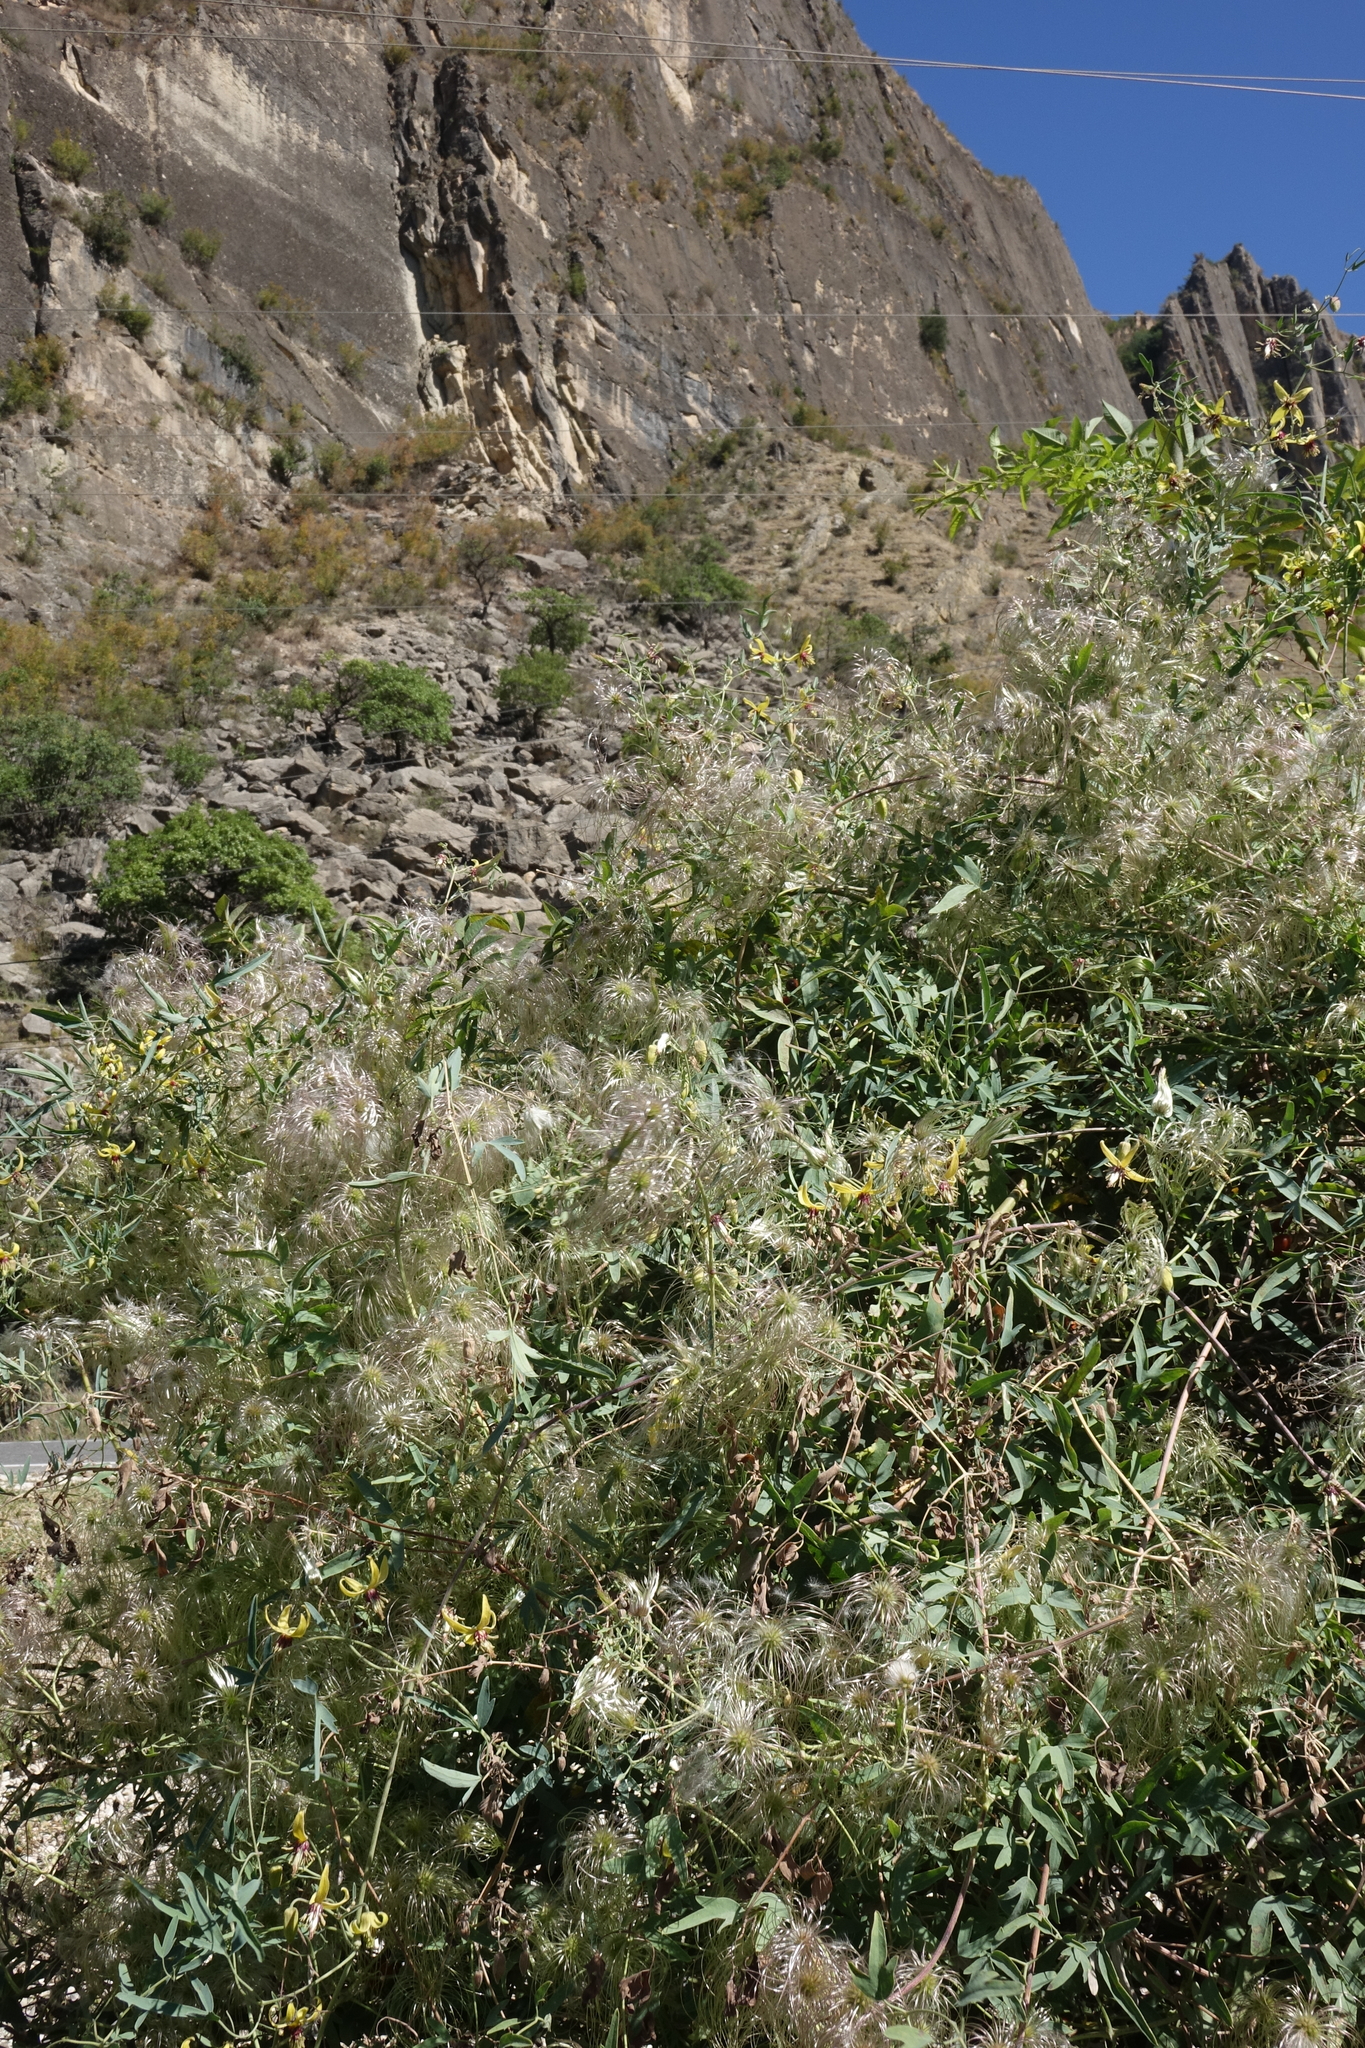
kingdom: Plantae
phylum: Tracheophyta
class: Magnoliopsida
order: Ranunculales
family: Ranunculaceae
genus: Clematis
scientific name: Clematis orientalis
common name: Oriental virgin's-bower
